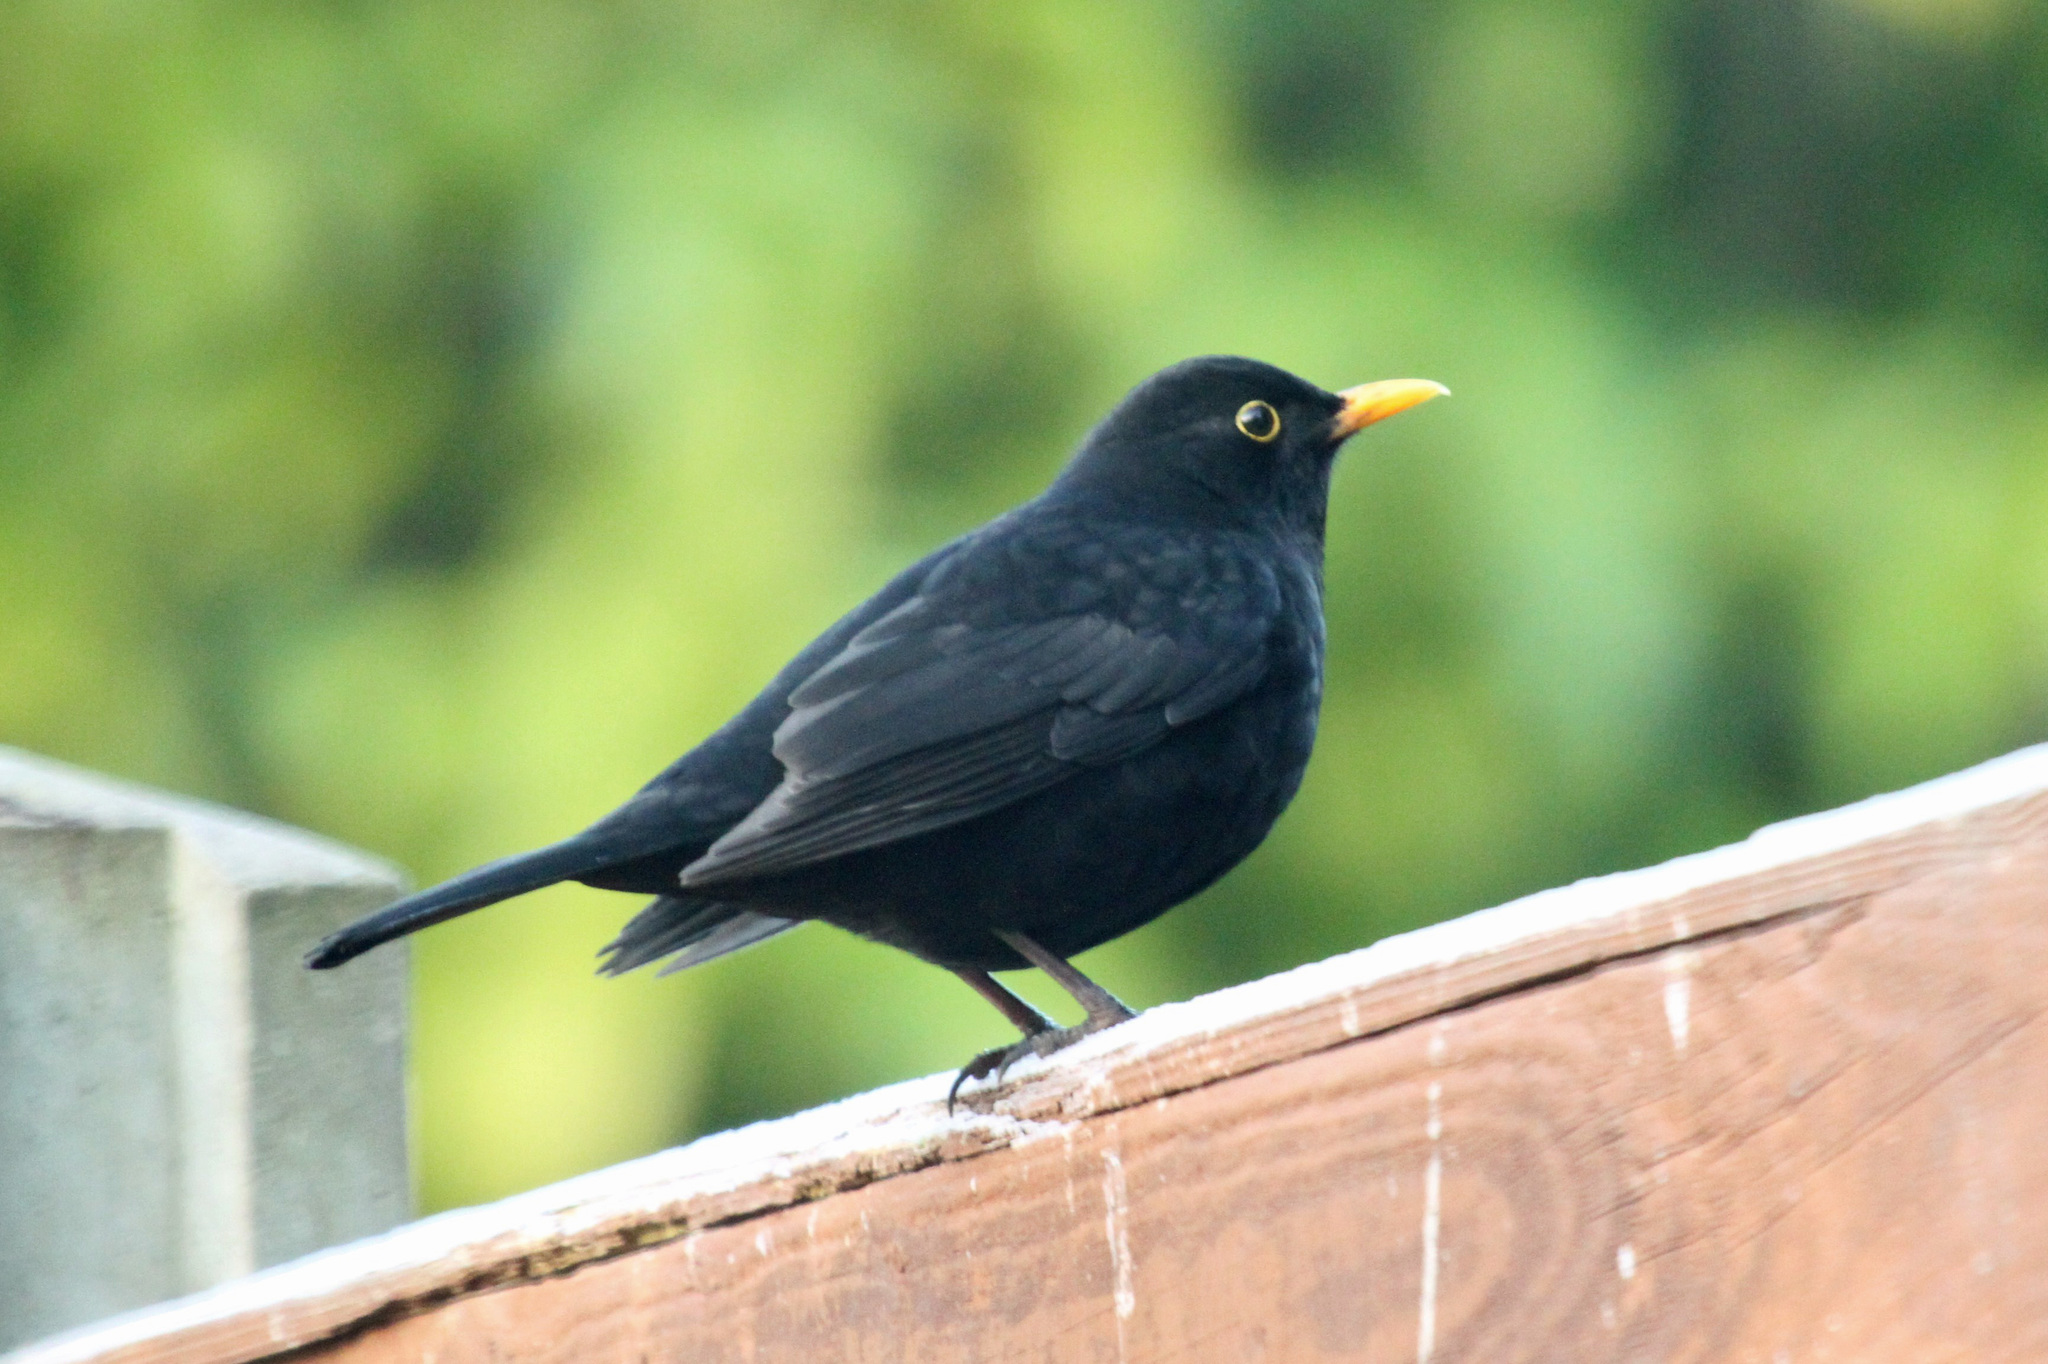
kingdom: Animalia
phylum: Chordata
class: Aves
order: Passeriformes
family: Turdidae
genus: Turdus
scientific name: Turdus merula
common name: Common blackbird
